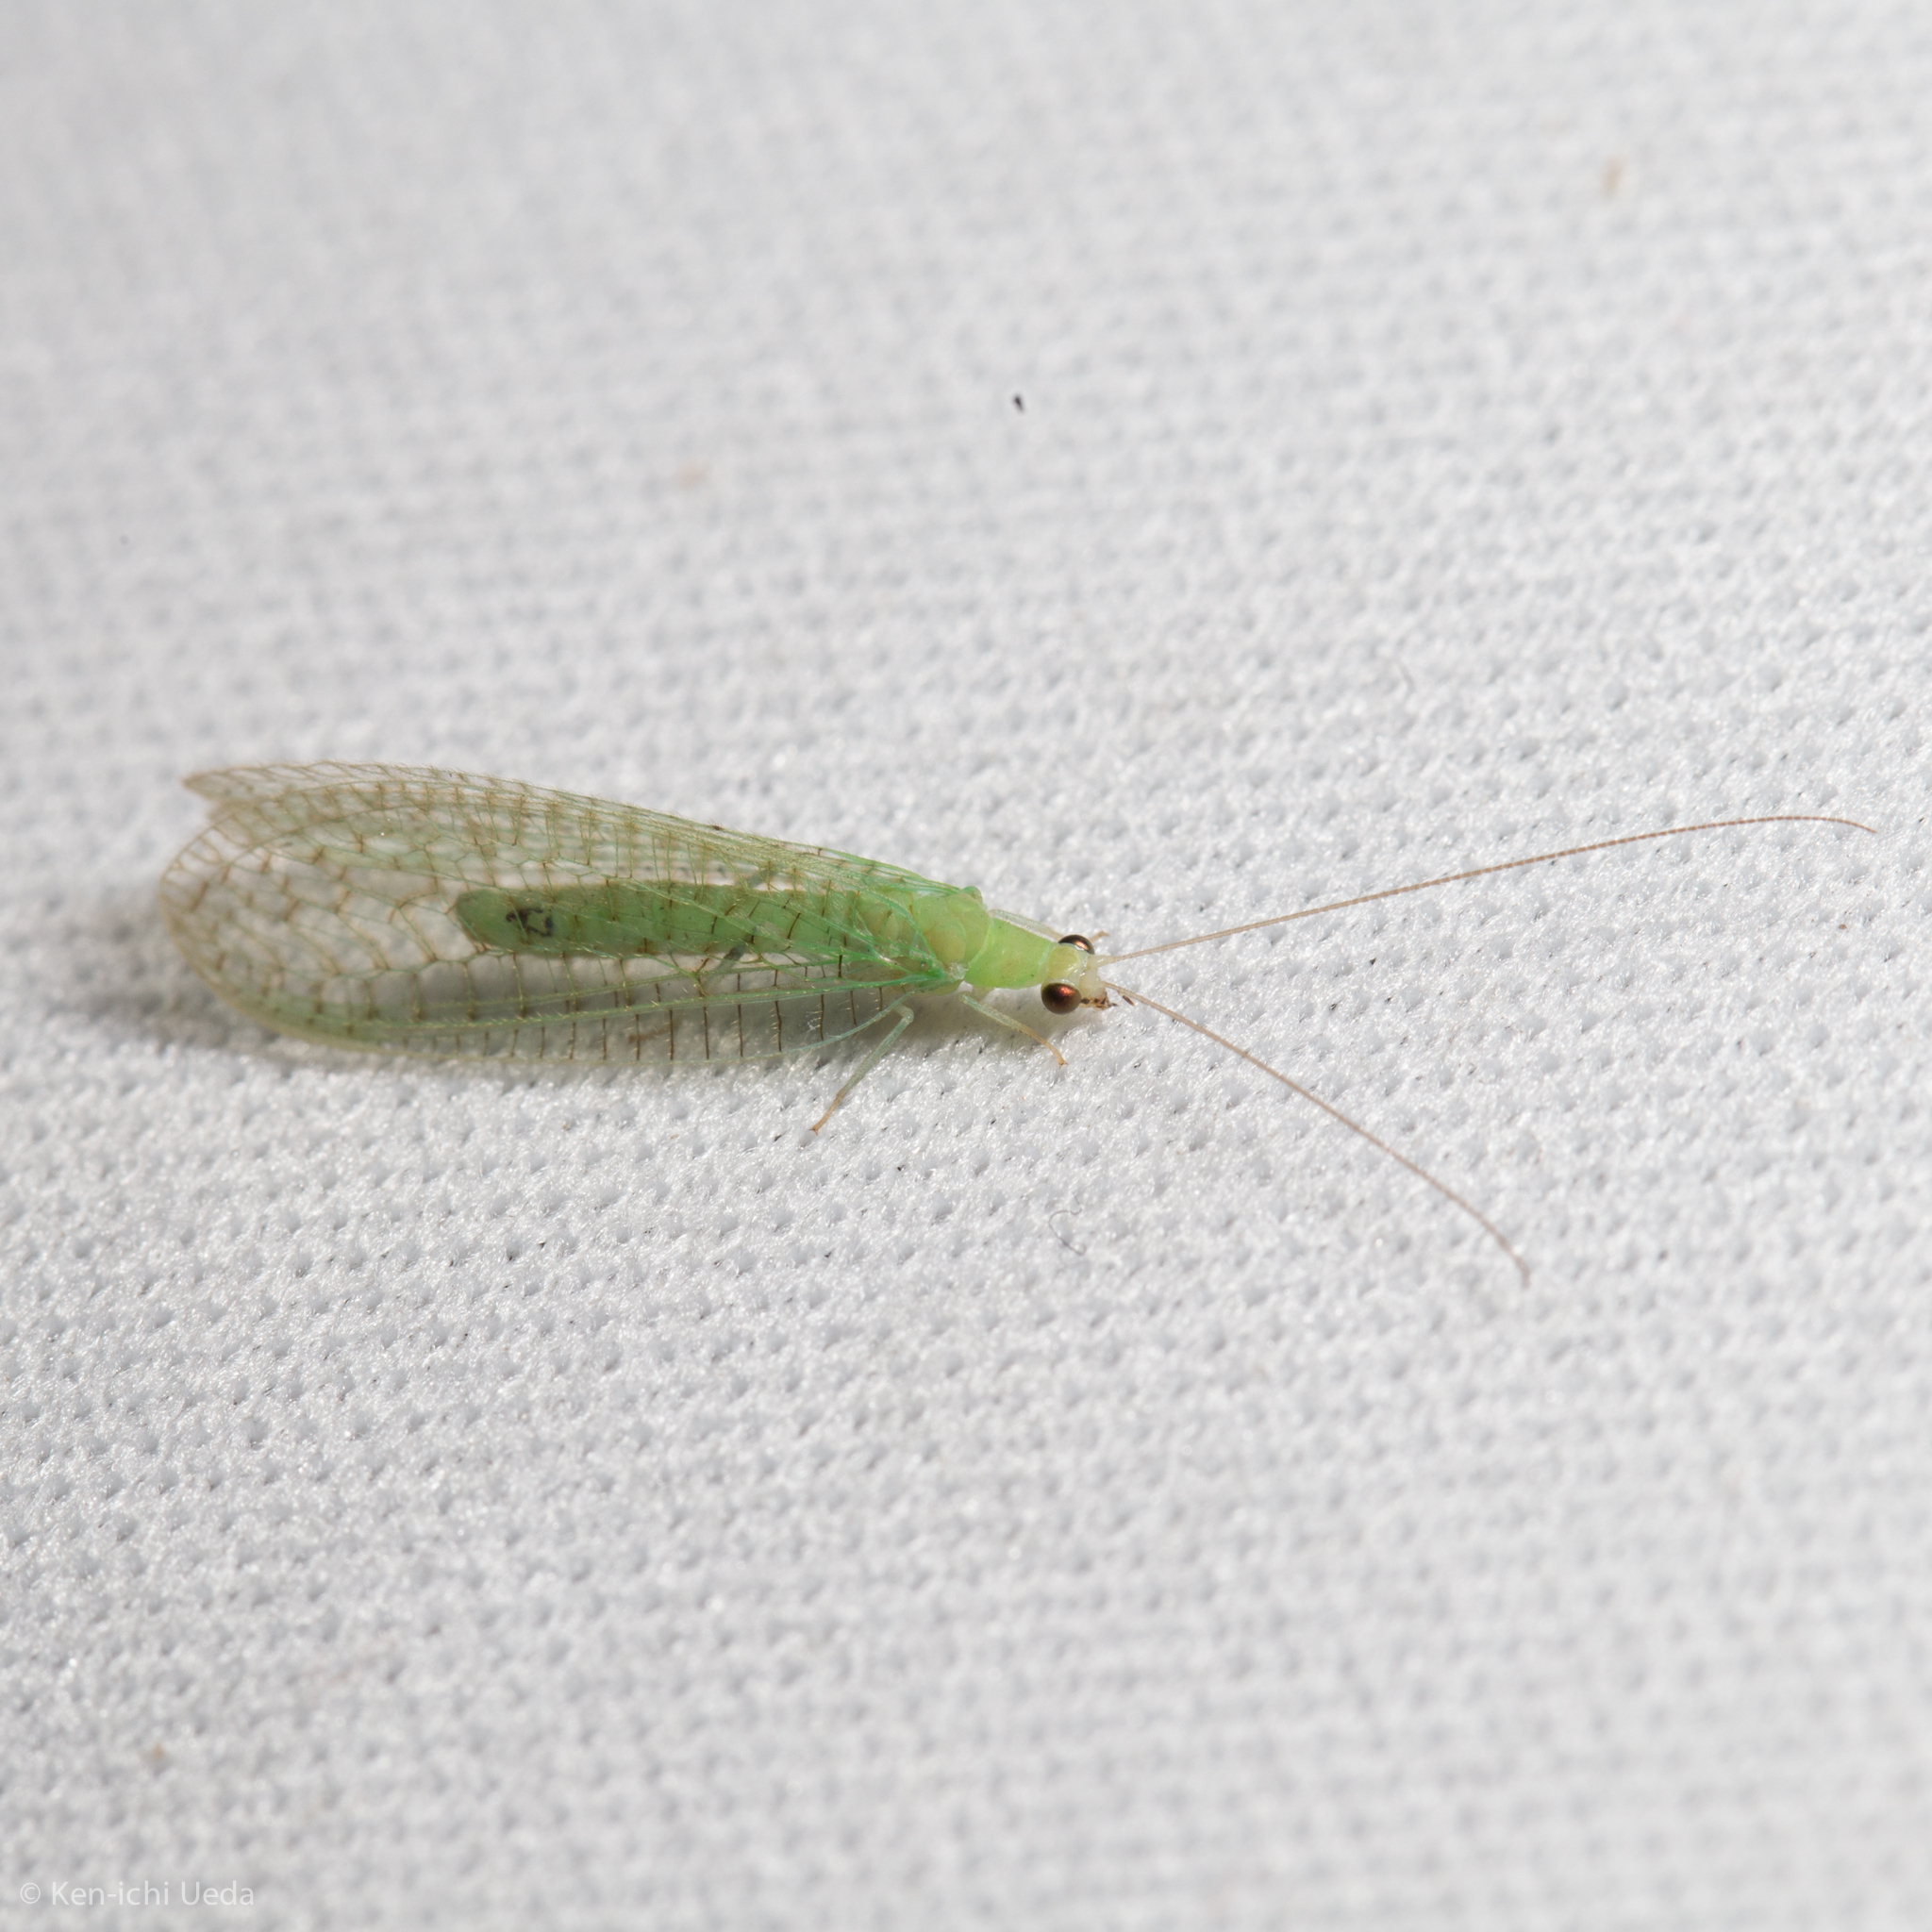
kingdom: Animalia
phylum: Arthropoda
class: Insecta
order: Neuroptera
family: Chrysopidae
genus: Chrysopa
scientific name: Chrysopa nigricornis
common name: Black-horned green lacewing
